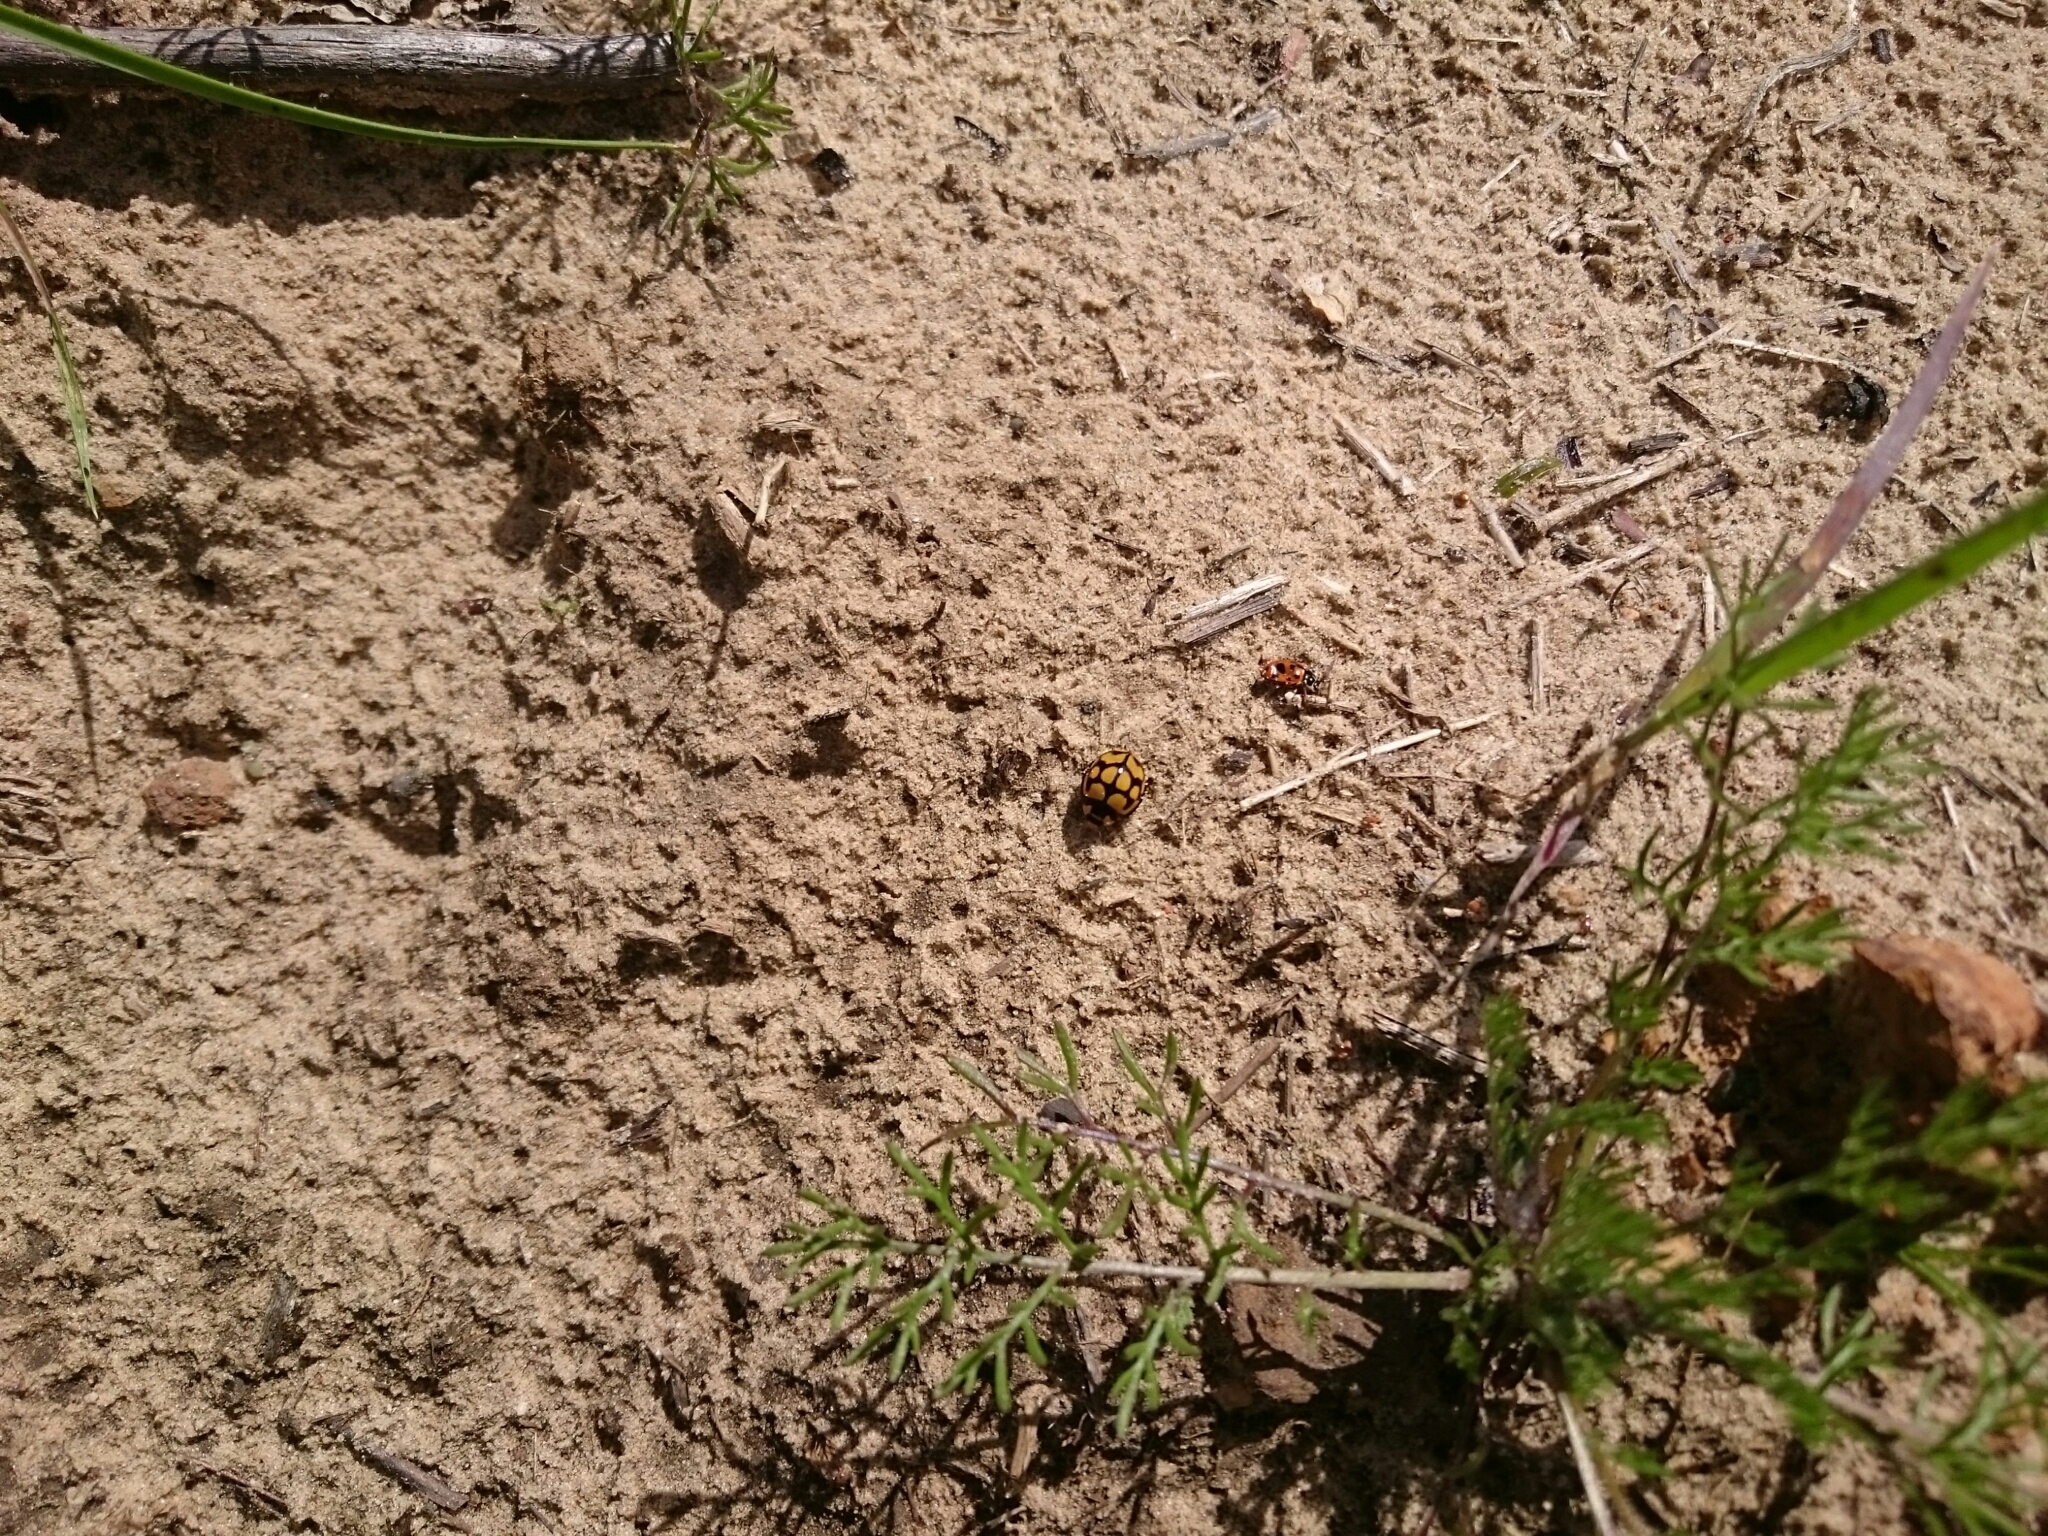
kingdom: Animalia
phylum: Arthropoda
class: Insecta
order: Coleoptera
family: Coccinellidae
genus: Hippodamia
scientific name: Hippodamia variegata
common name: Ladybird beetle
